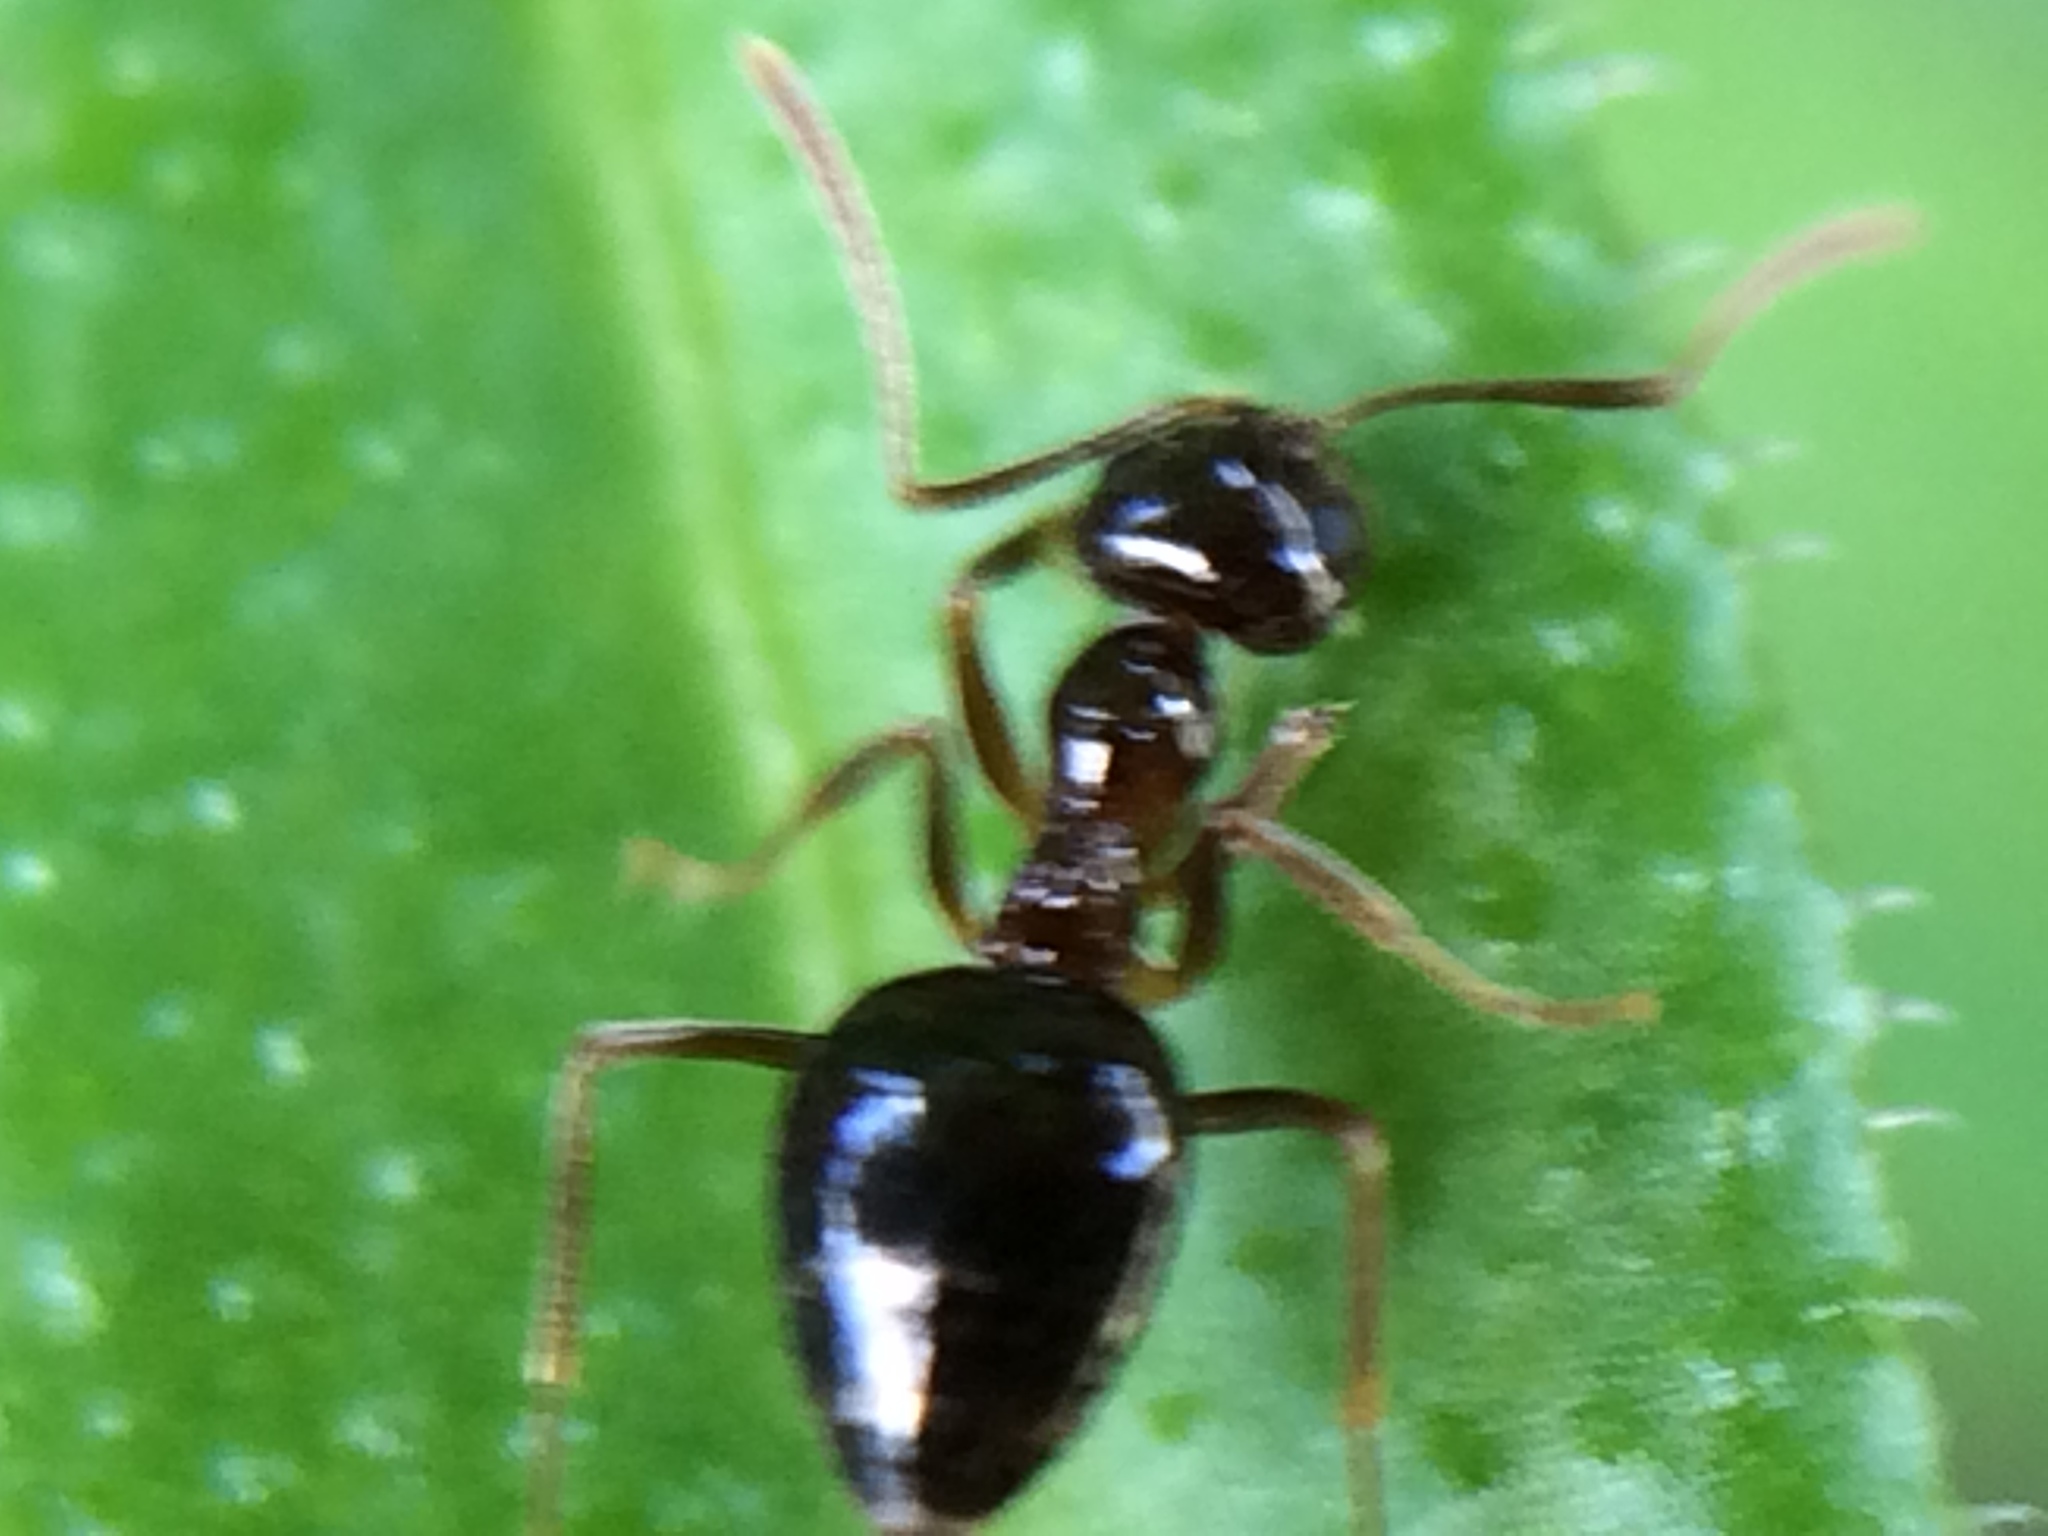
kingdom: Animalia
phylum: Arthropoda
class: Insecta
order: Hymenoptera
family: Formicidae
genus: Prenolepis
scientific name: Prenolepis imparis
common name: Small honey ant
